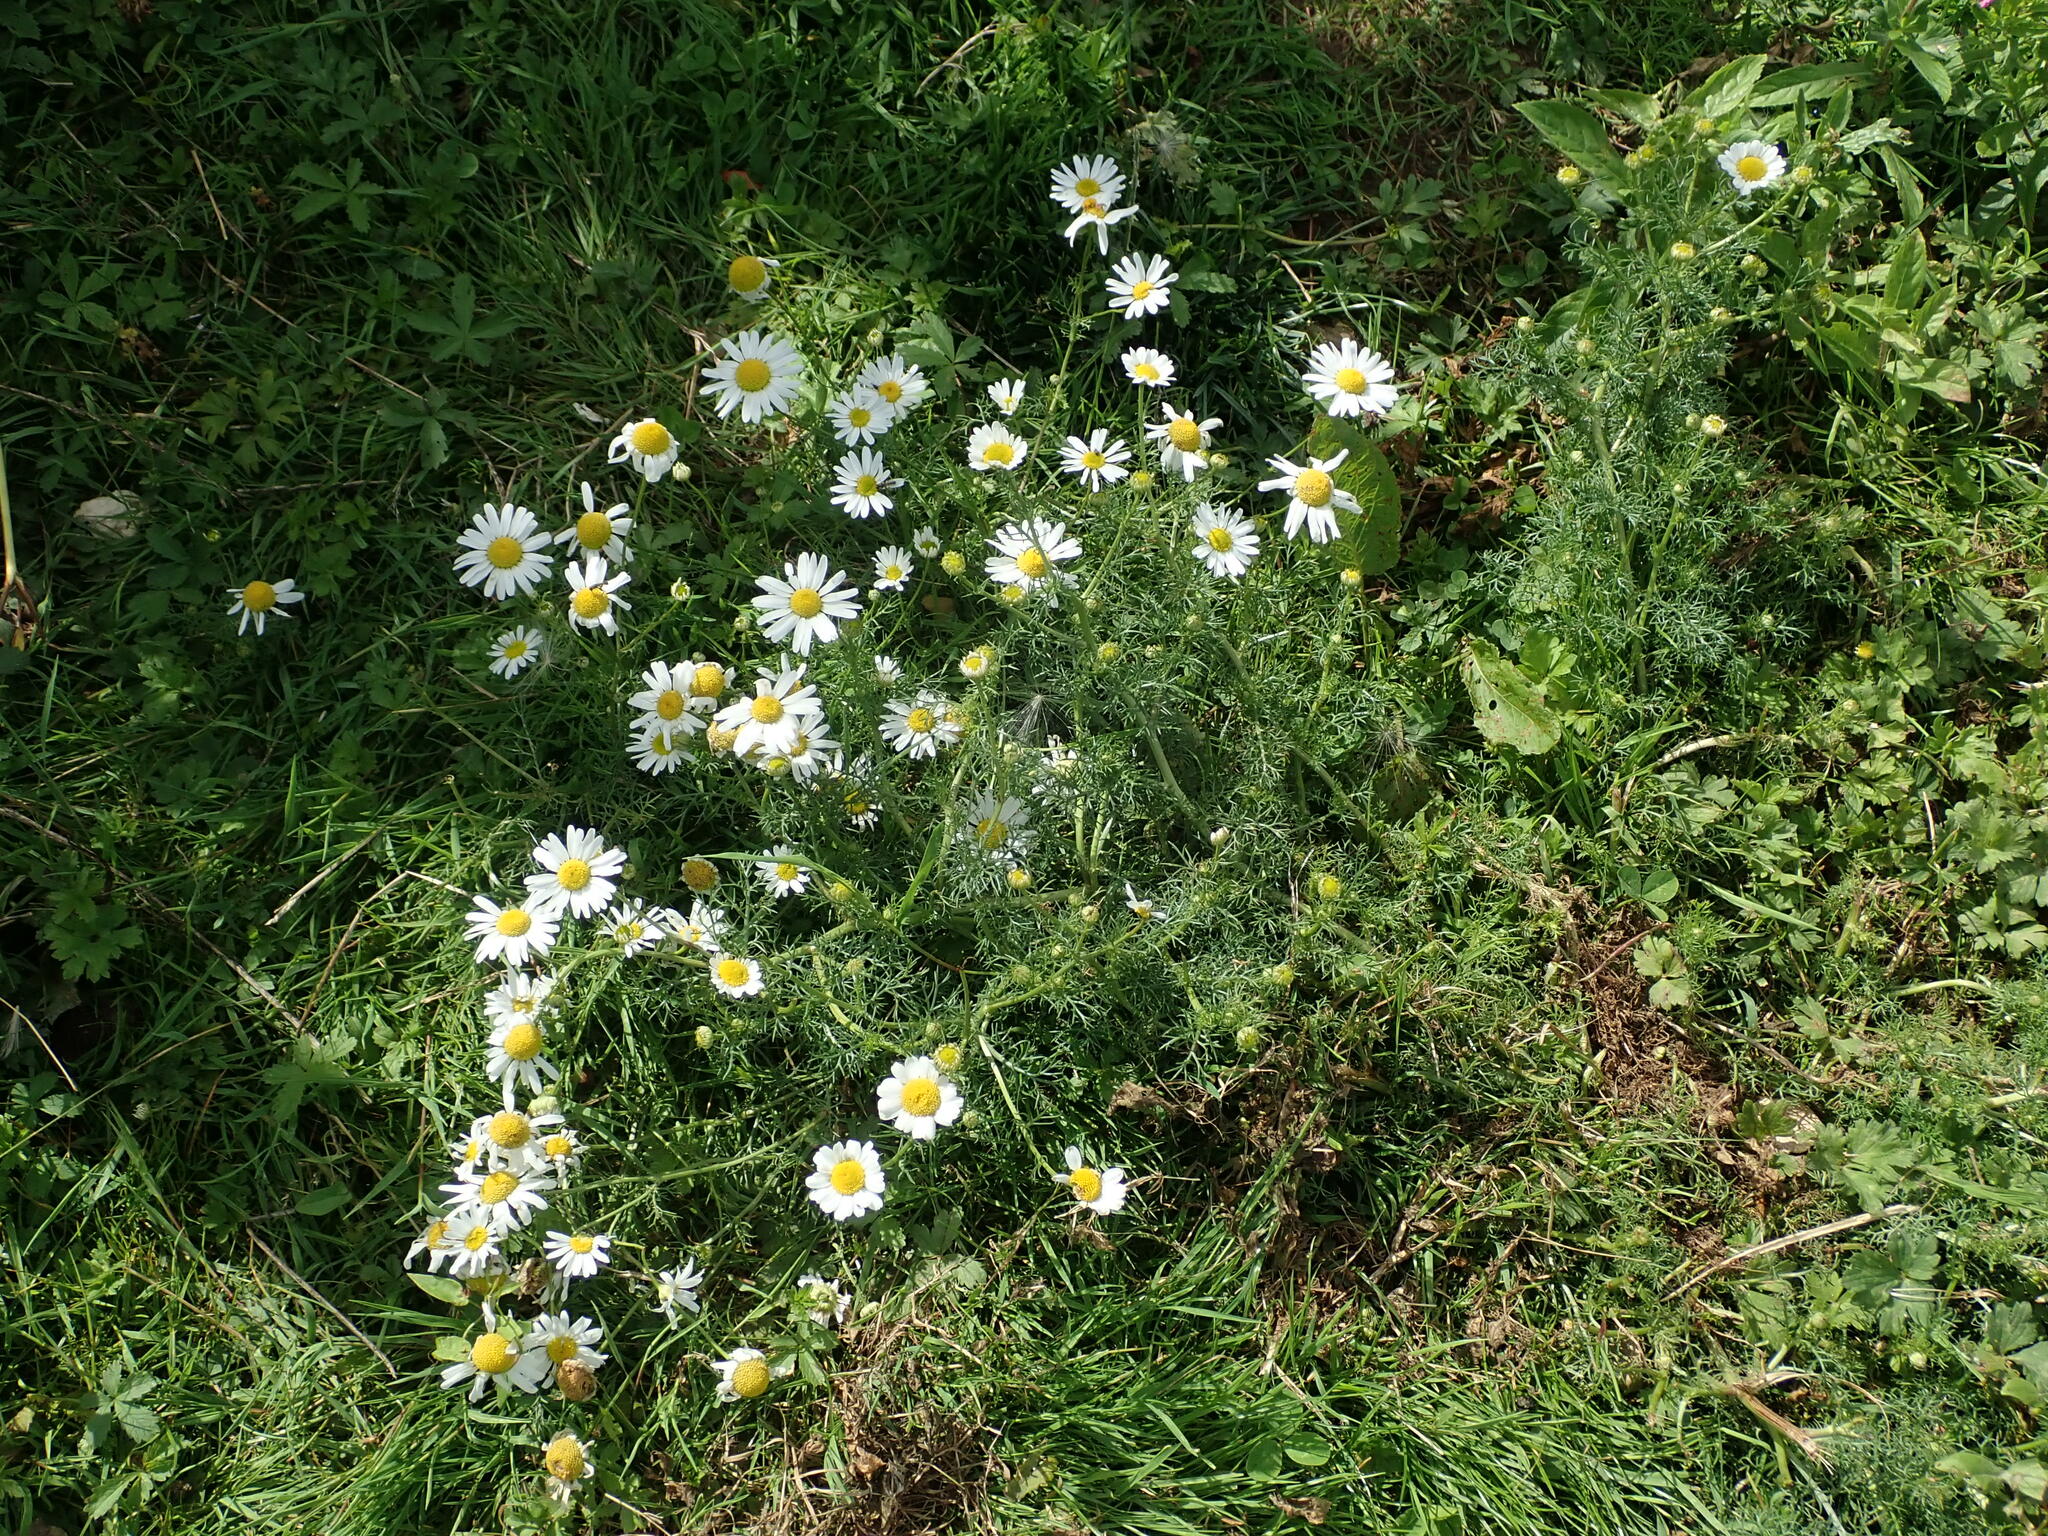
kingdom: Plantae
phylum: Tracheophyta
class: Magnoliopsida
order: Asterales
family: Asteraceae
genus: Tripleurospermum
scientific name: Tripleurospermum inodorum
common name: Scentless mayweed
